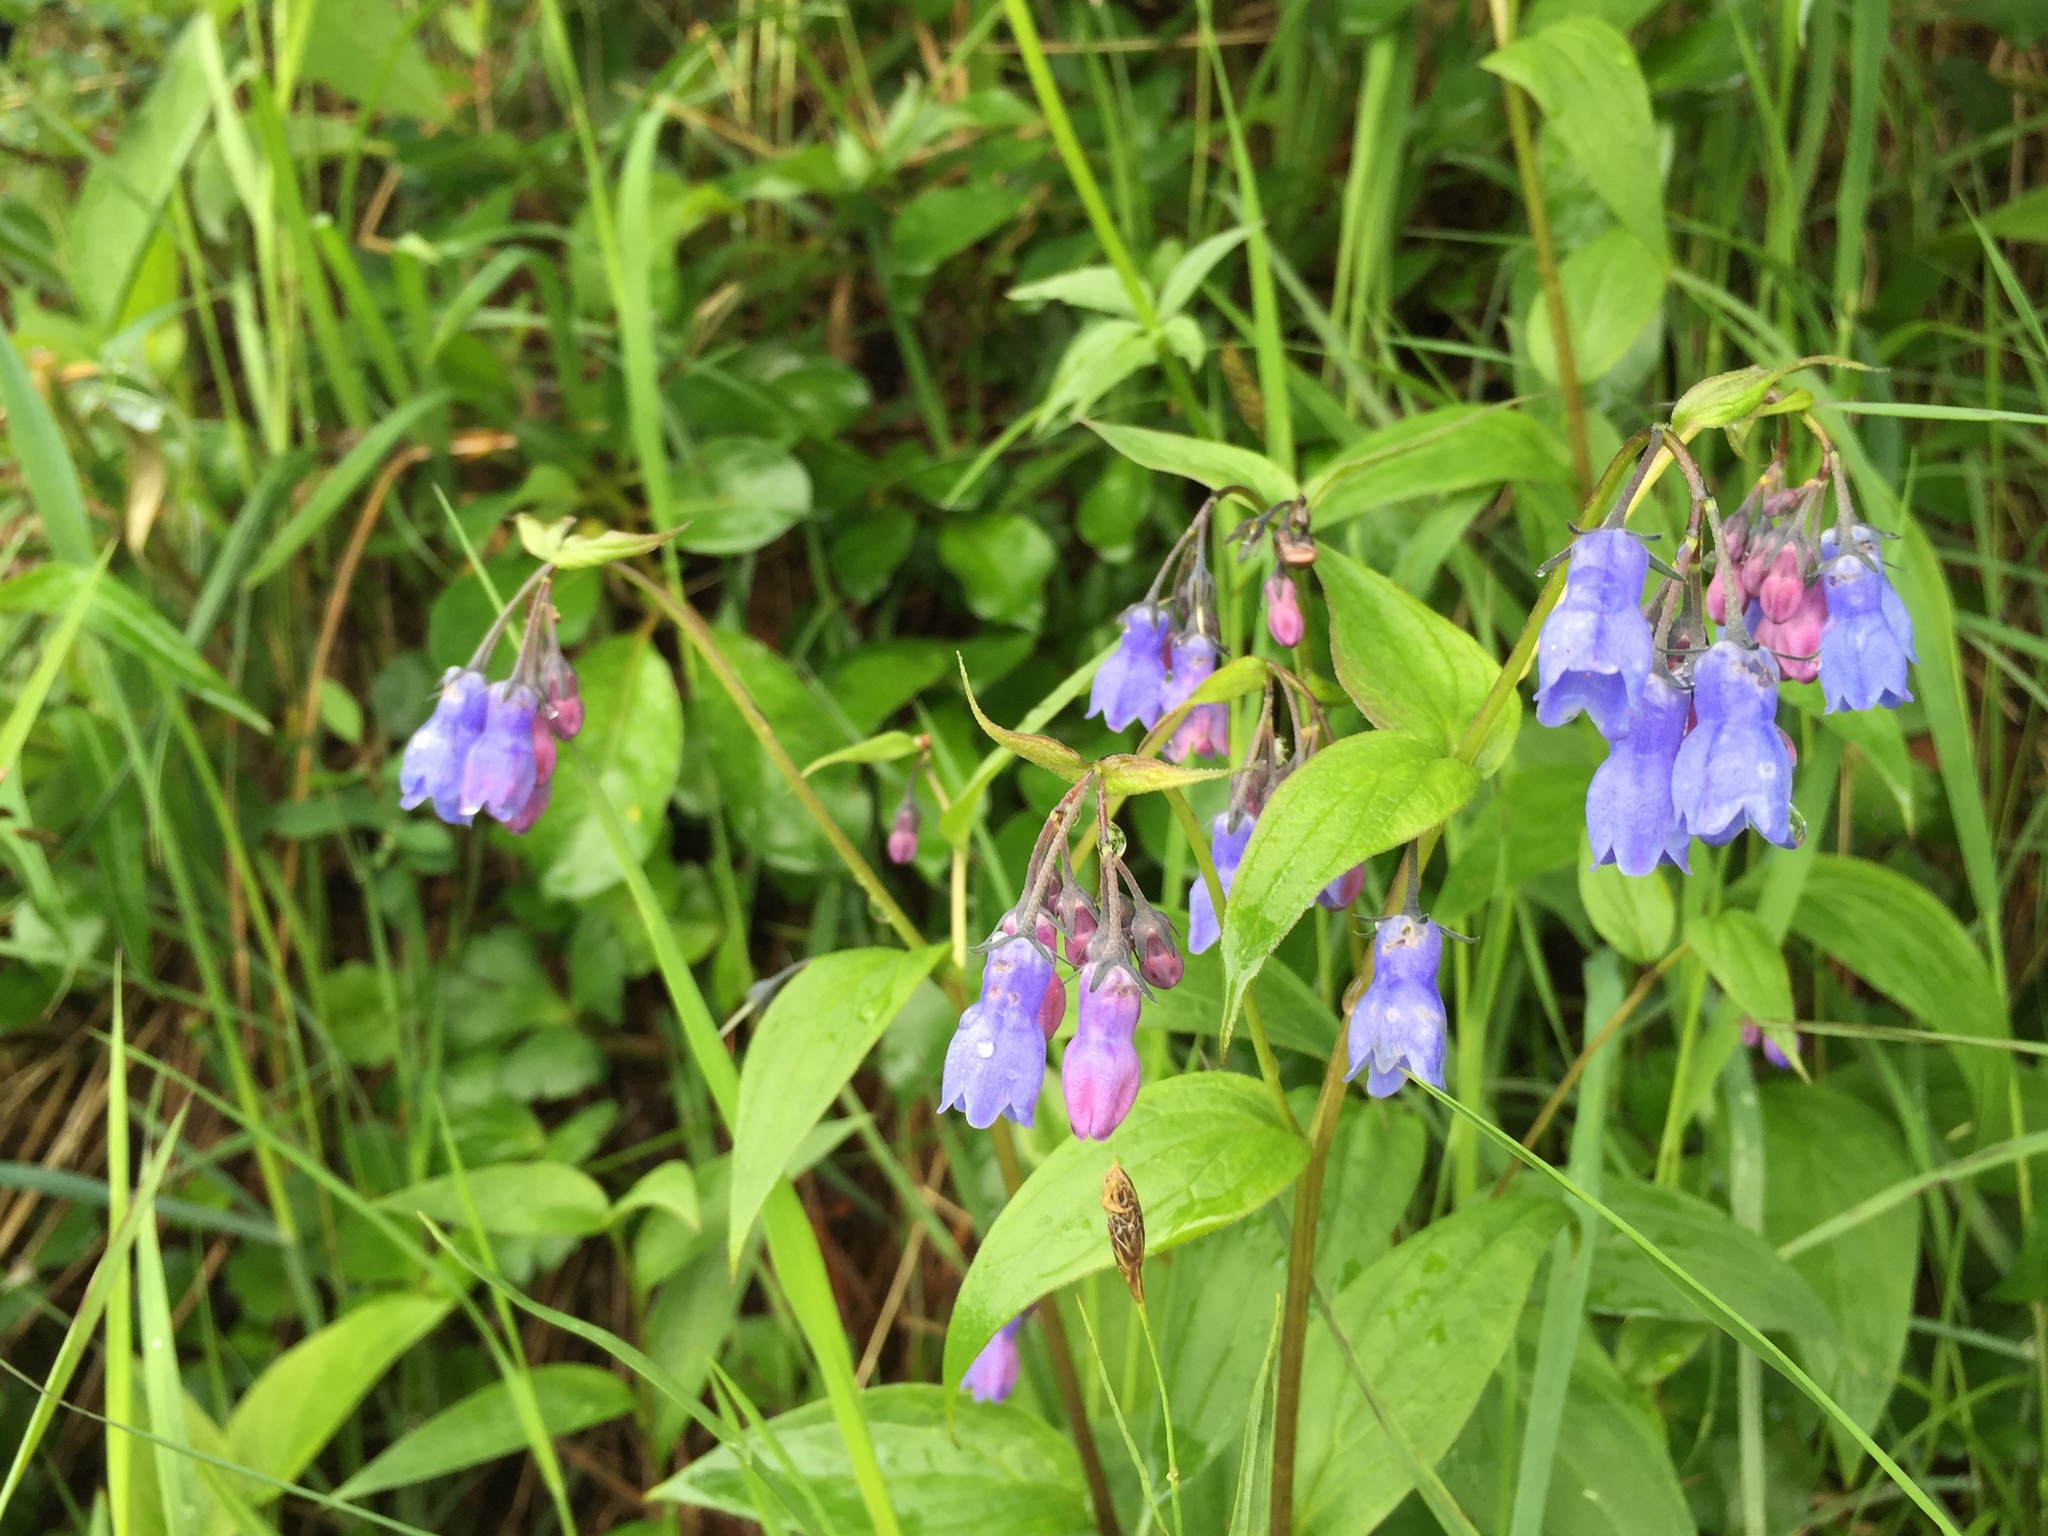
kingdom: Plantae
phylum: Tracheophyta
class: Magnoliopsida
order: Boraginales
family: Boraginaceae
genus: Mertensia
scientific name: Mertensia paniculata
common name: Panicled bluebells
